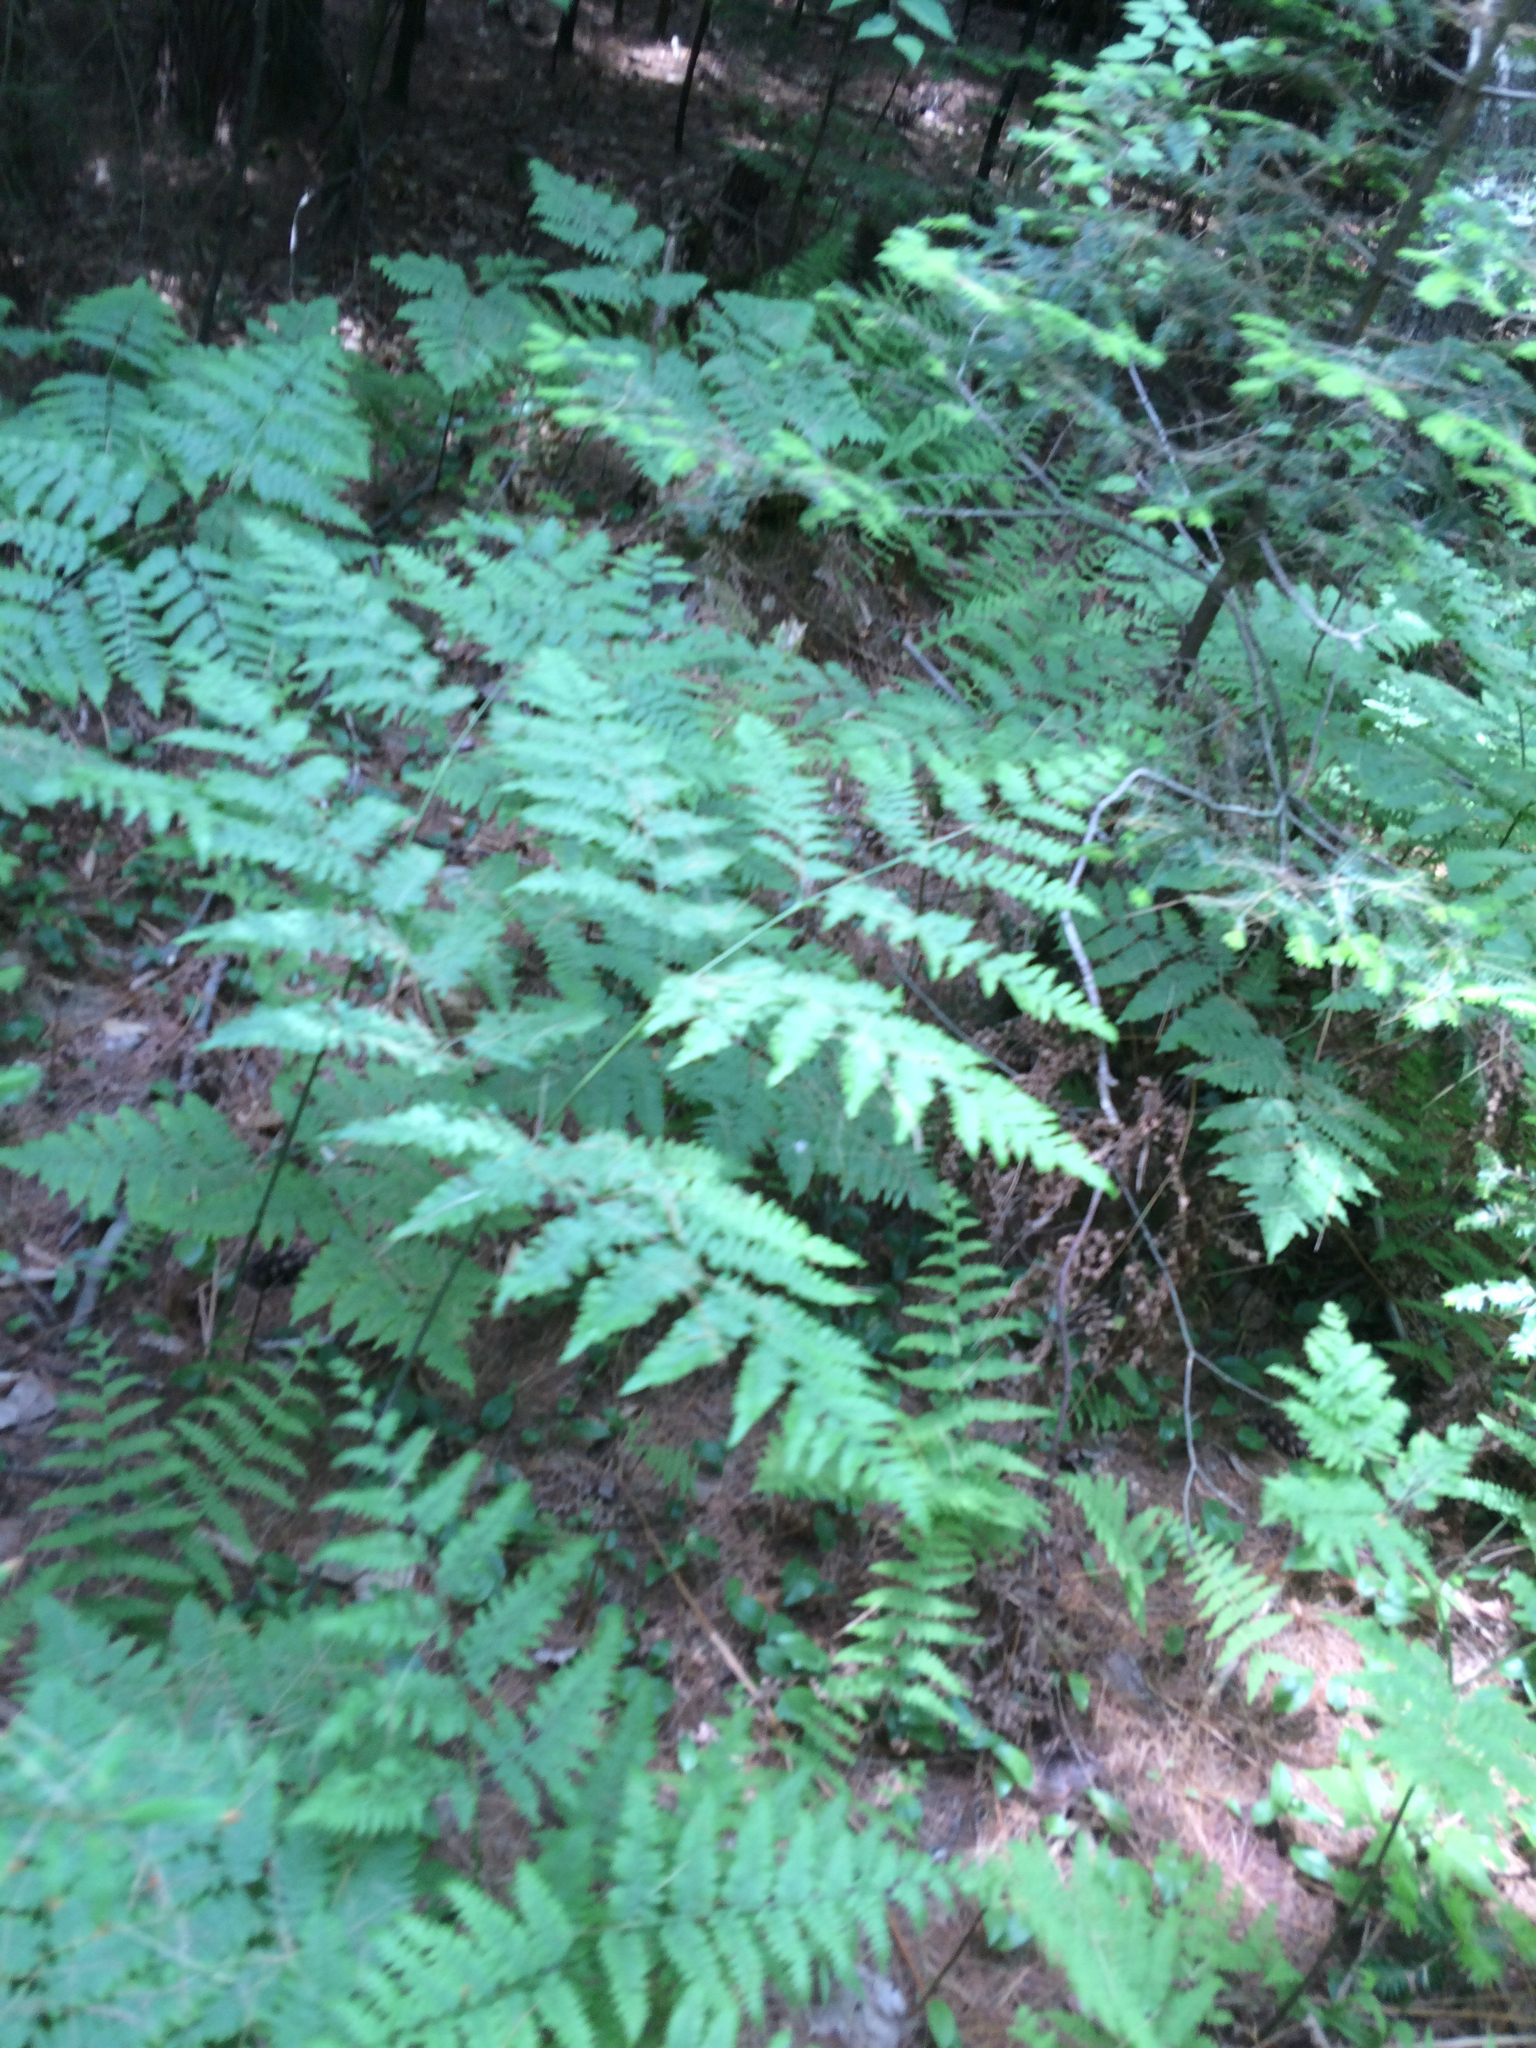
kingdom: Plantae
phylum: Tracheophyta
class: Polypodiopsida
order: Polypodiales
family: Dennstaedtiaceae
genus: Pteridium
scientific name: Pteridium aquilinum
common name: Bracken
